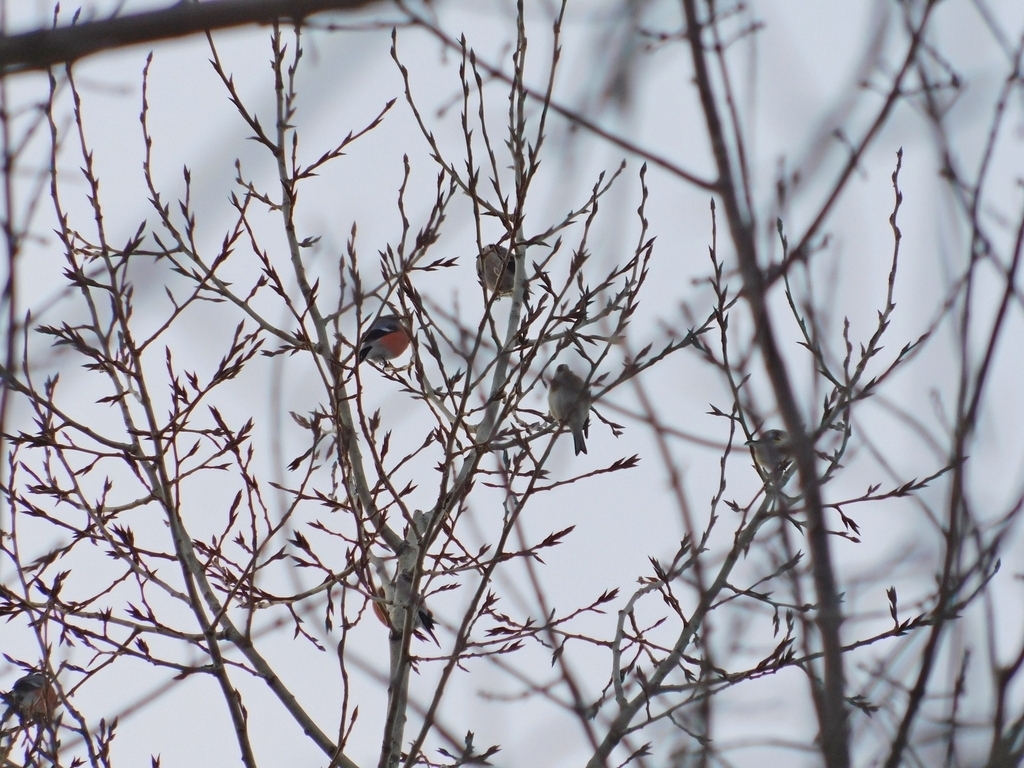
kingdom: Animalia
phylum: Chordata
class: Aves
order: Passeriformes
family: Fringillidae
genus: Carduelis
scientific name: Carduelis carduelis
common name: European goldfinch
